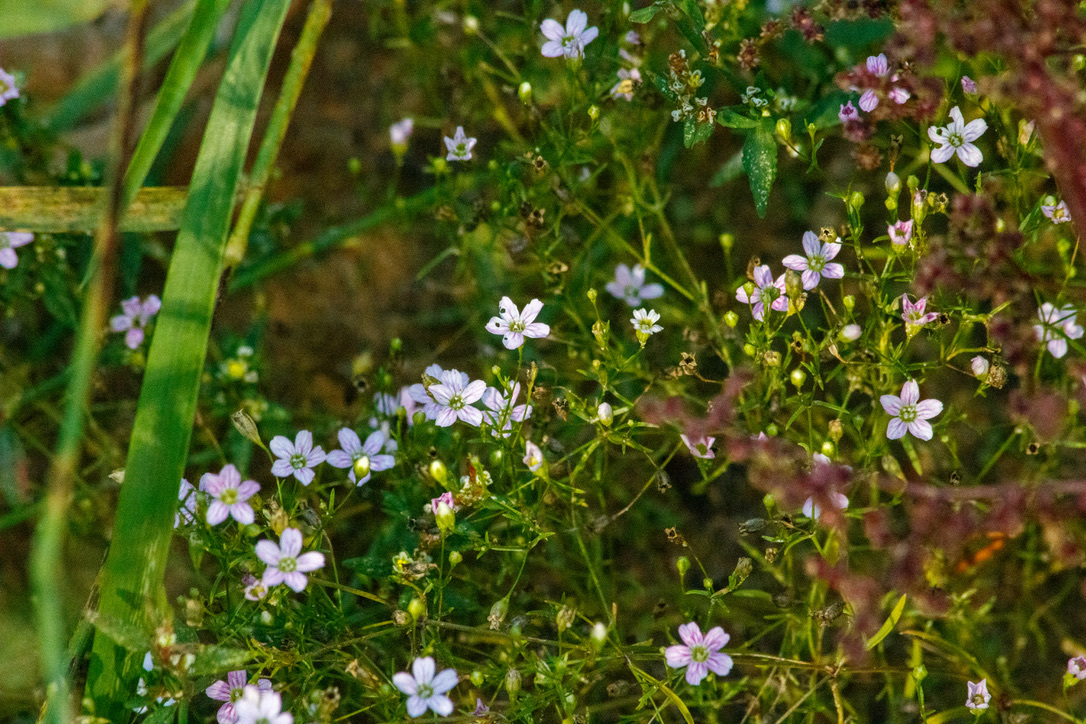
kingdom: Plantae
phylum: Tracheophyta
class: Magnoliopsida
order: Caryophyllales
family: Caryophyllaceae
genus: Psammophiliella
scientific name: Psammophiliella muralis
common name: Cushion baby's-breath
